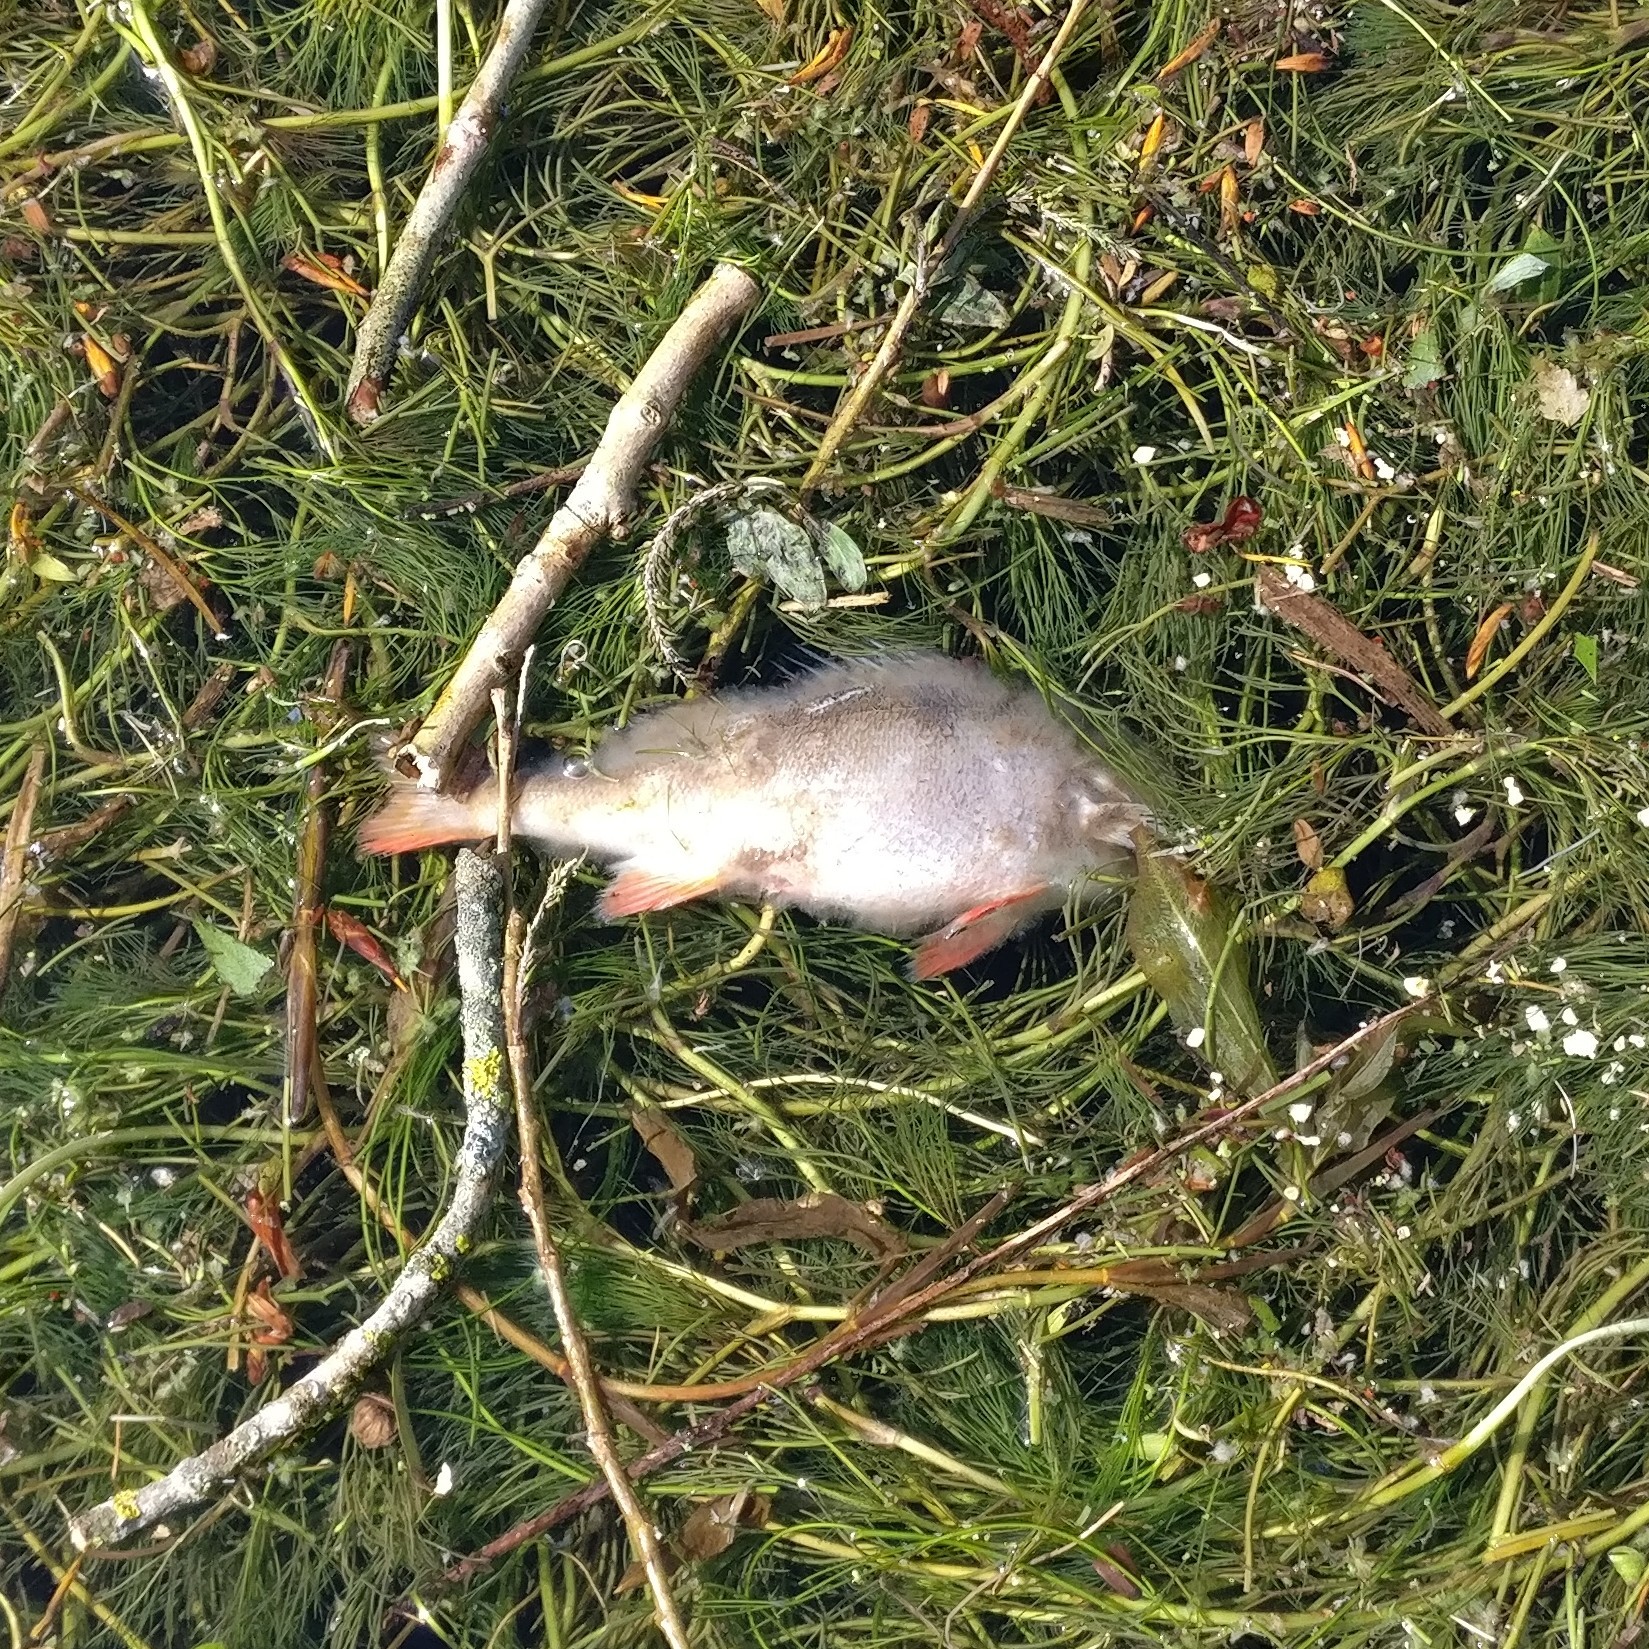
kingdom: Animalia
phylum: Chordata
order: Perciformes
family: Percidae
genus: Perca
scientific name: Perca fluviatilis
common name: Perch
